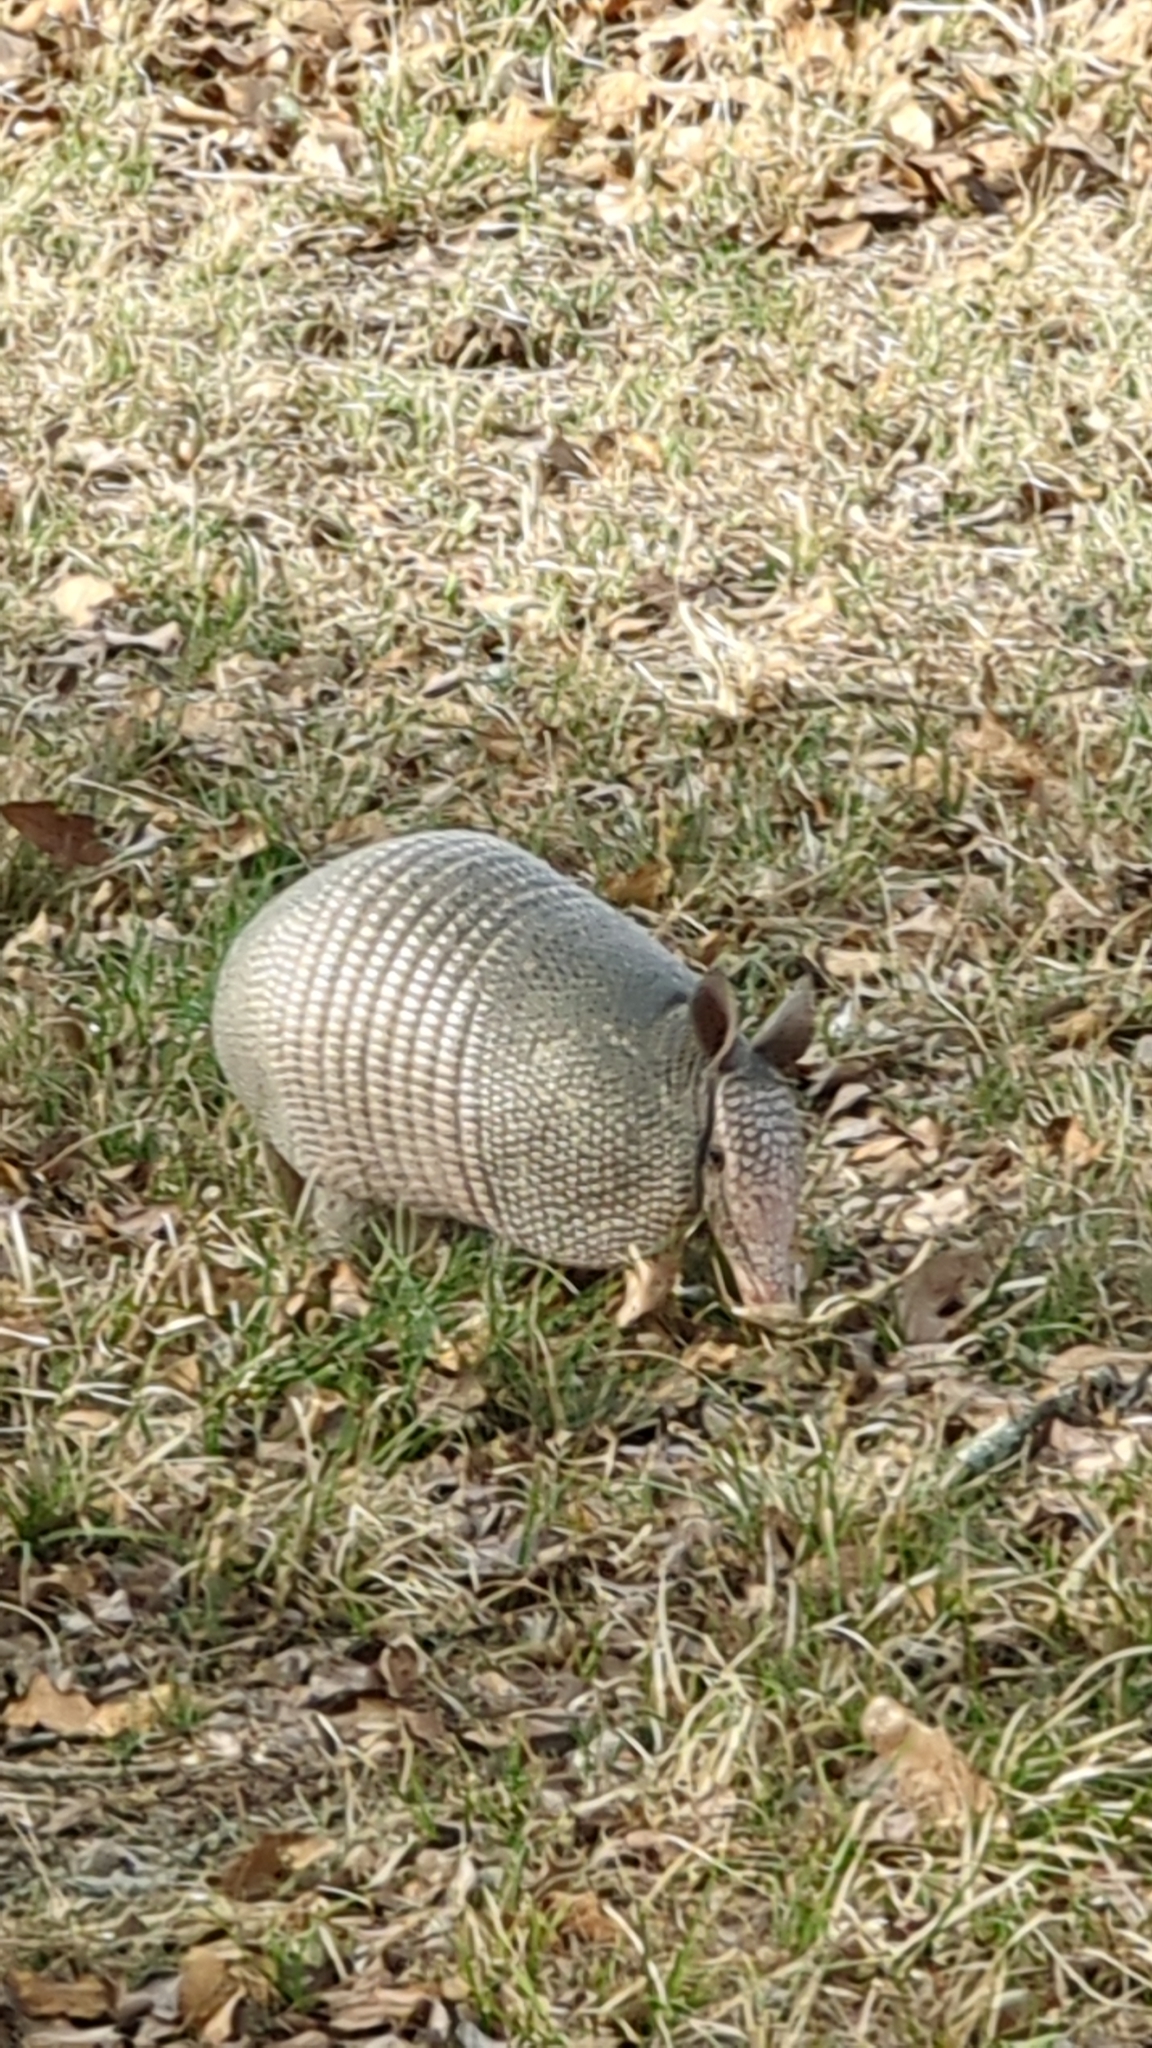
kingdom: Animalia
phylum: Chordata
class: Mammalia
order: Cingulata
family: Dasypodidae
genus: Dasypus
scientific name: Dasypus novemcinctus
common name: Nine-banded armadillo
